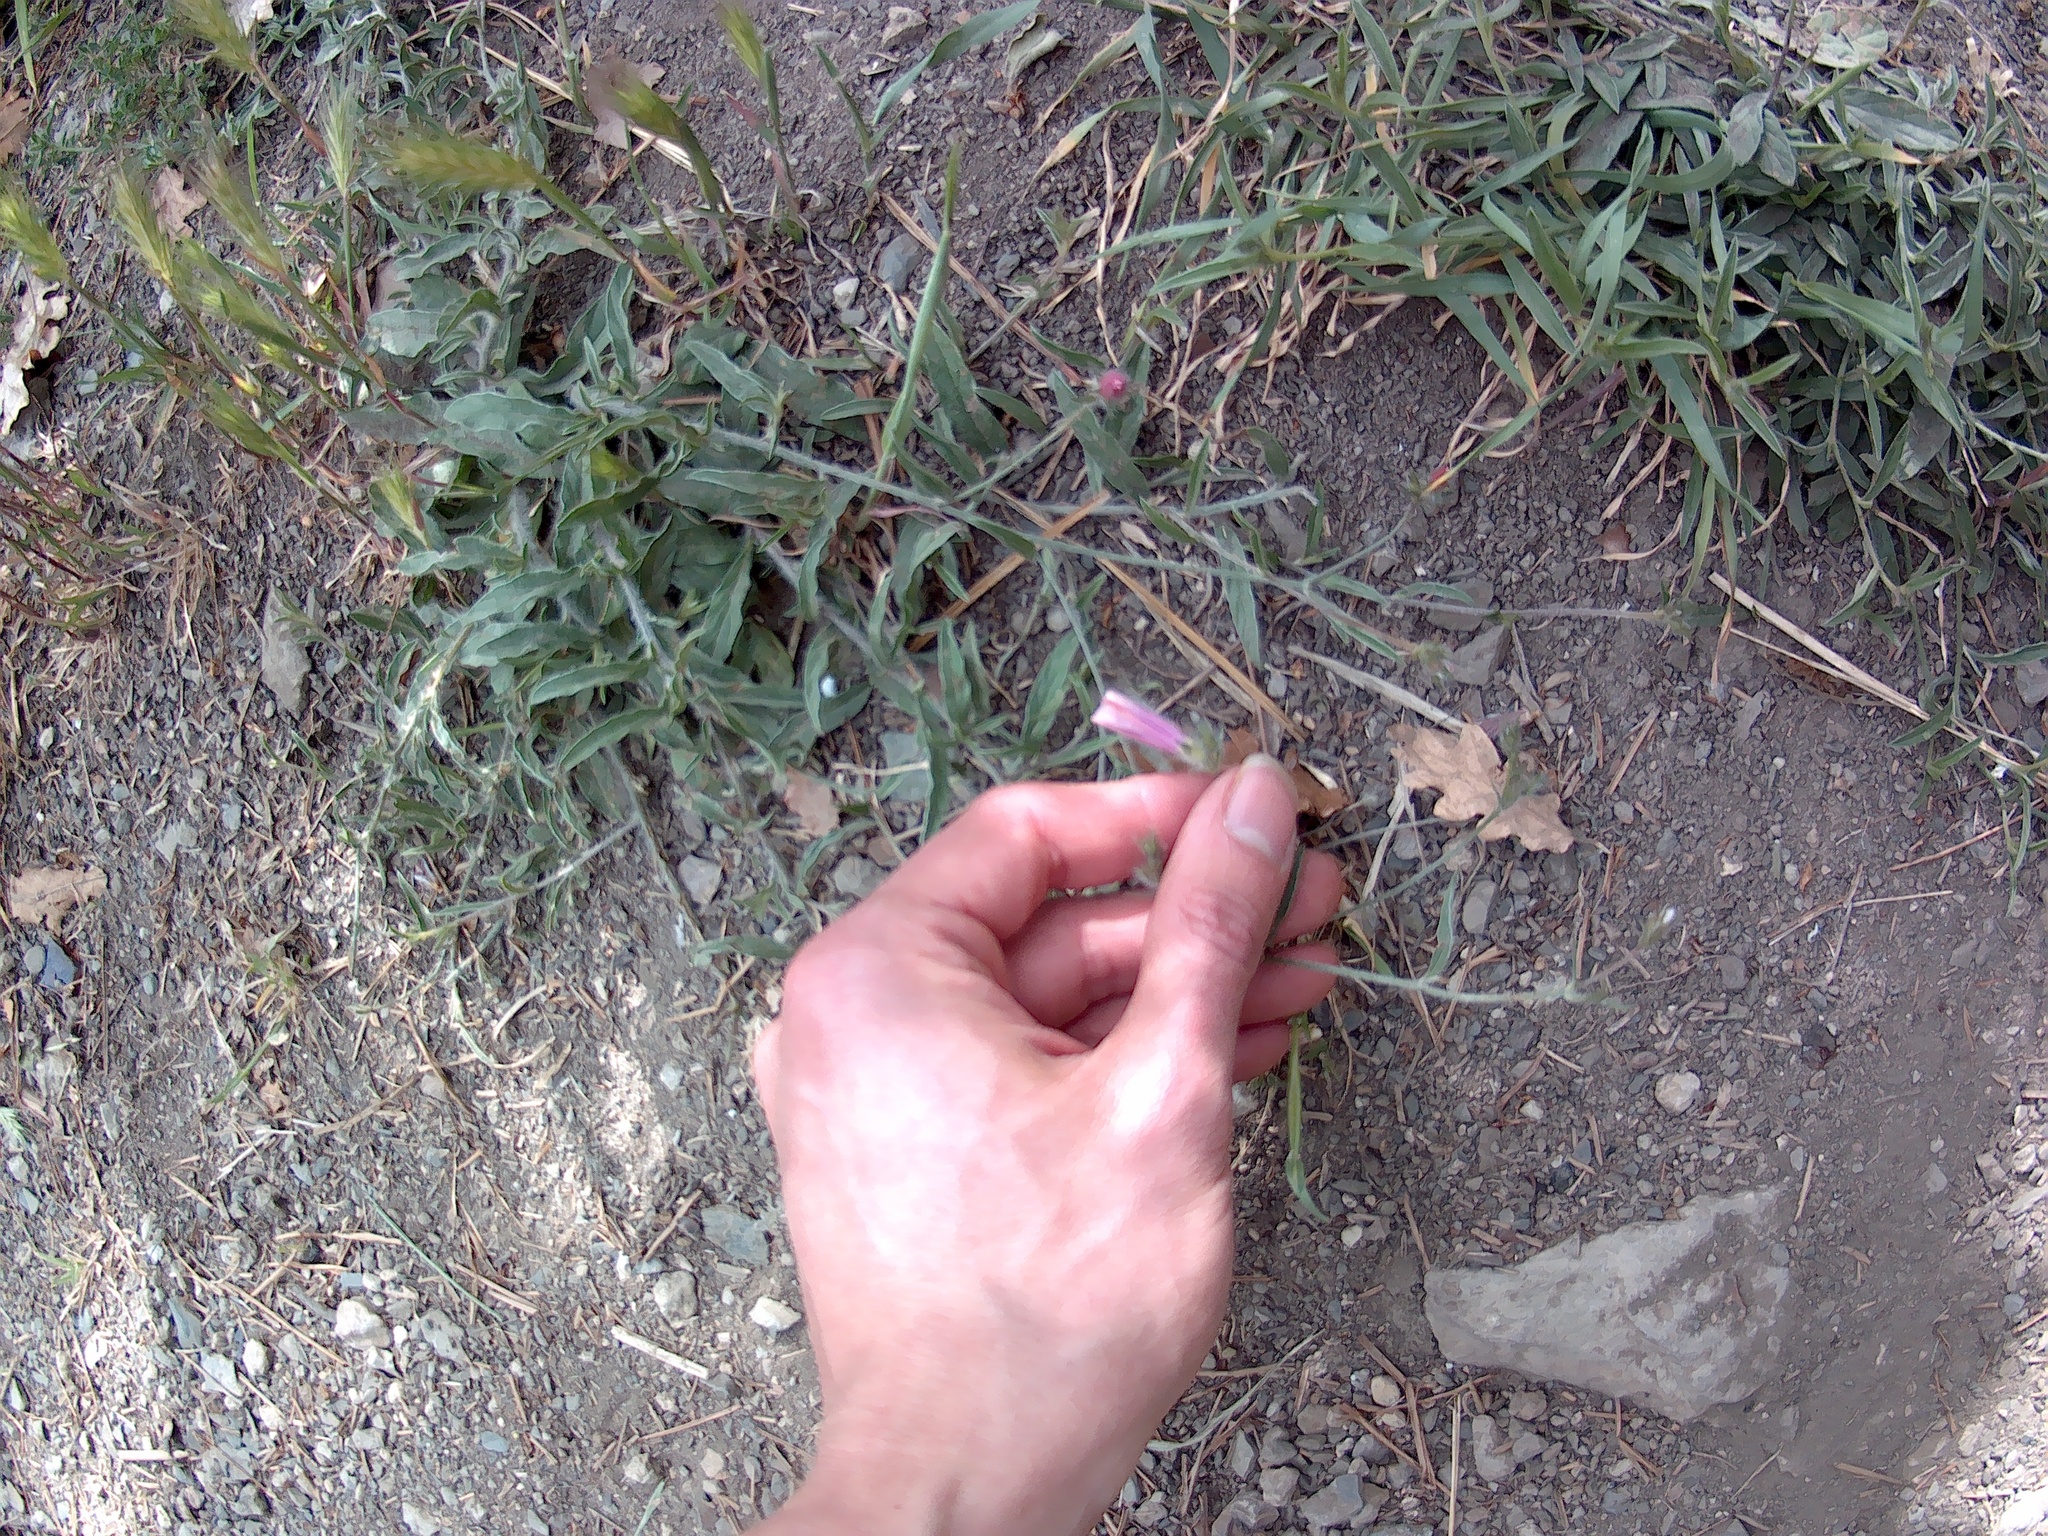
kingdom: Plantae
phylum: Tracheophyta
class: Magnoliopsida
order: Solanales
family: Convolvulaceae
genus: Convolvulus
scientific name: Convolvulus cantabrica
